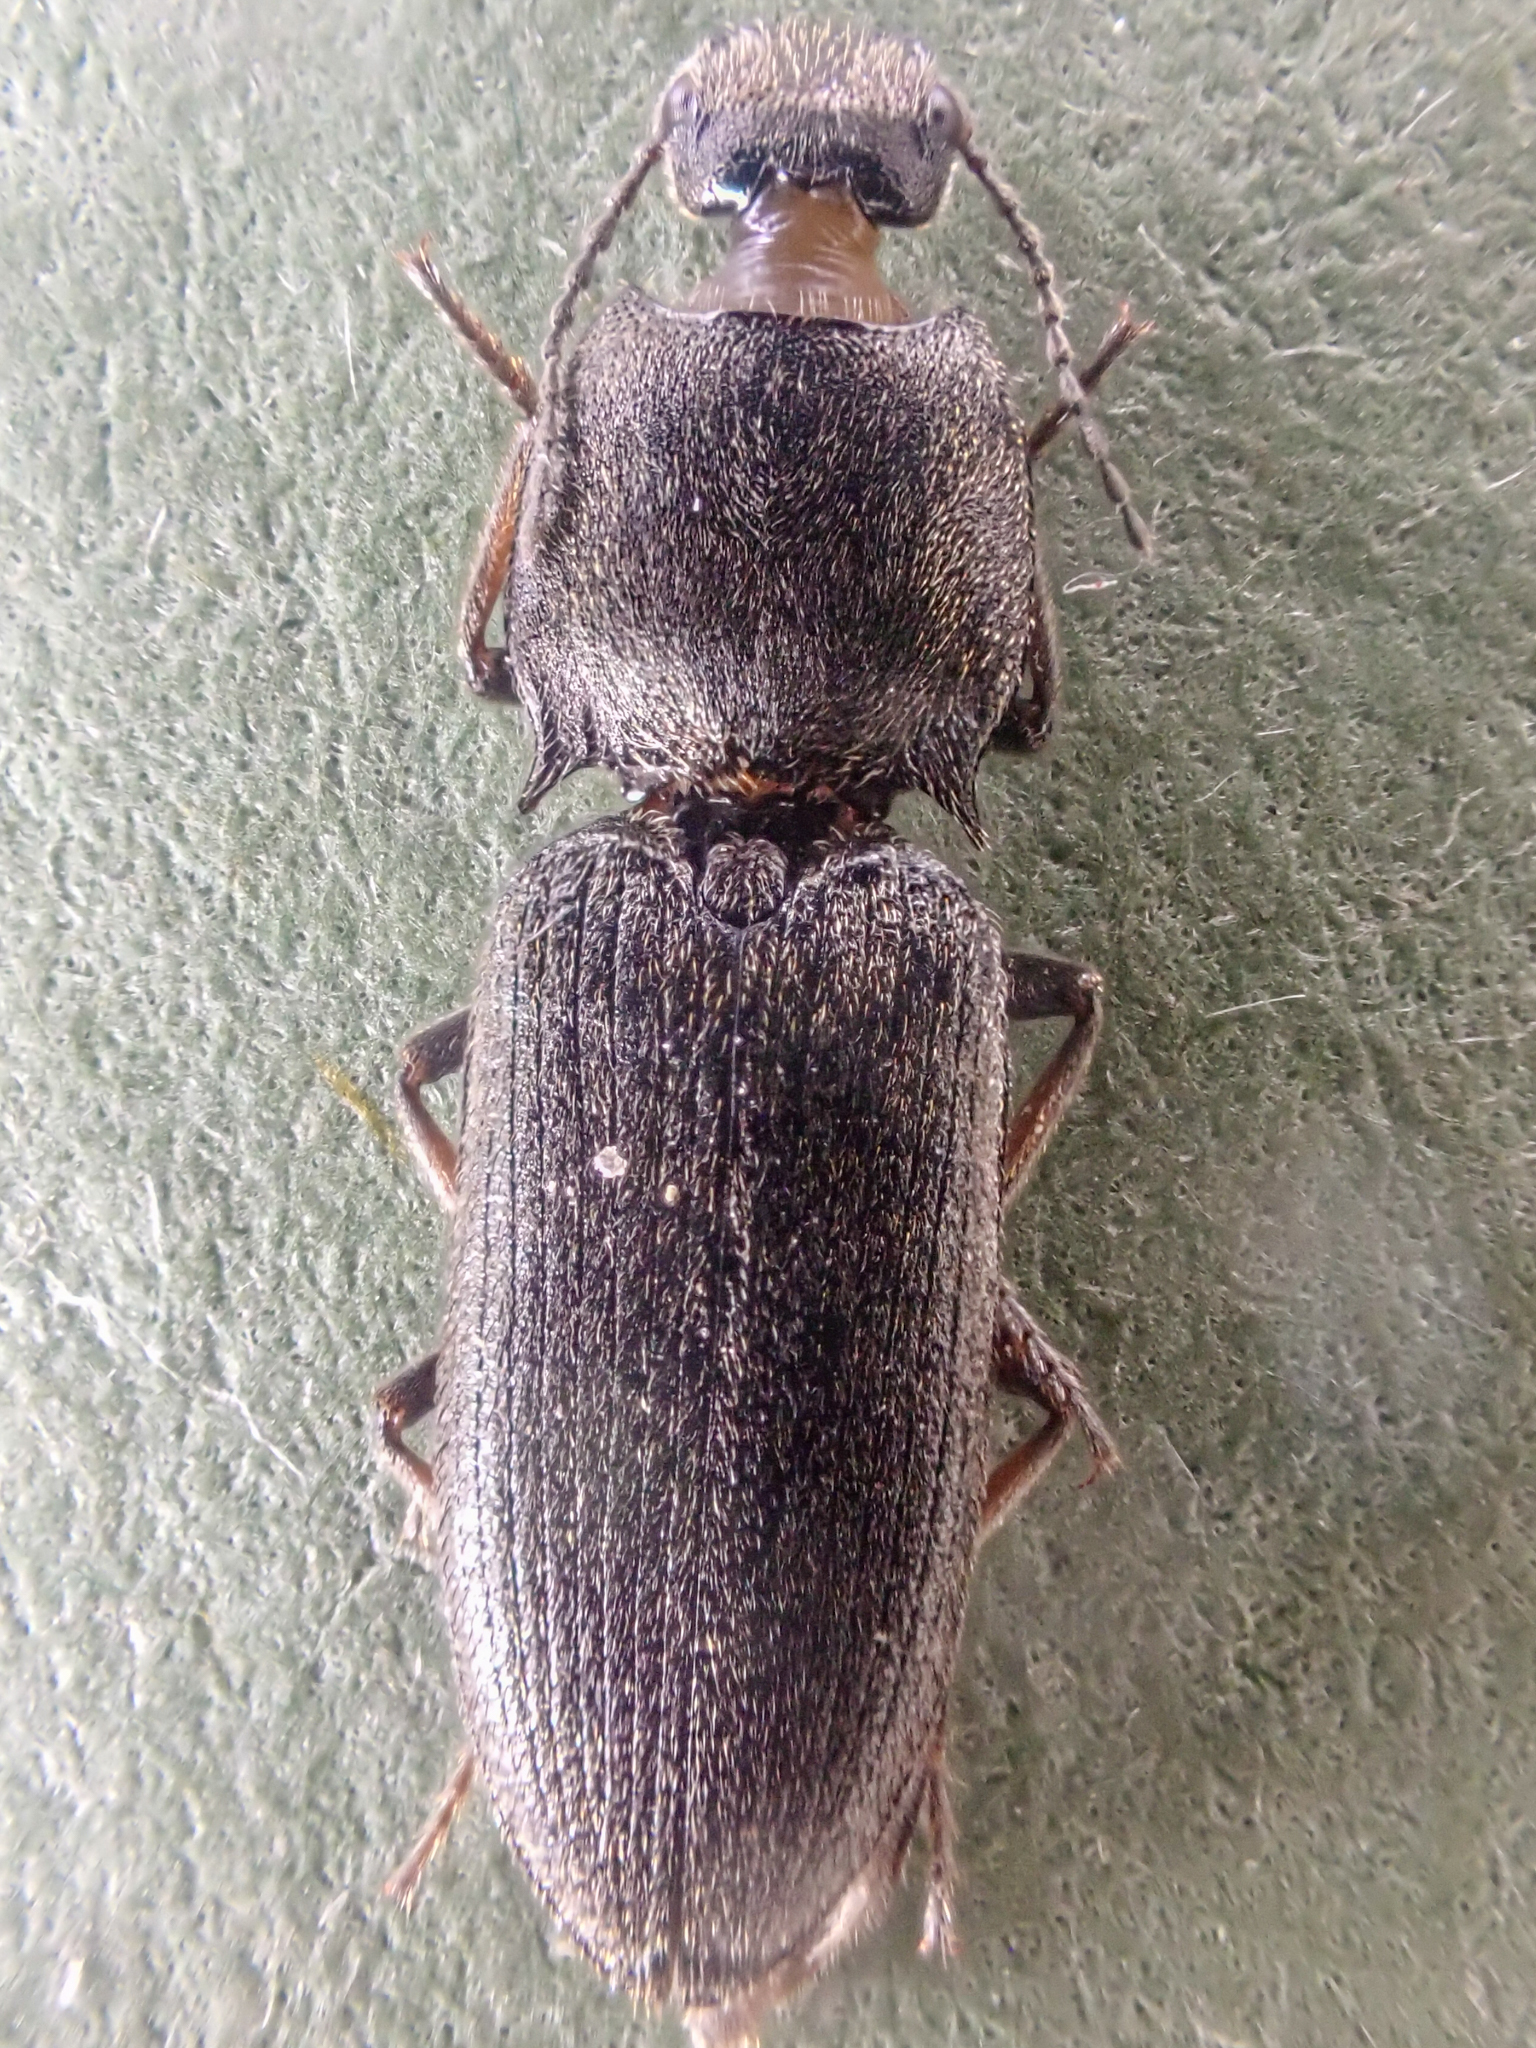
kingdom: Animalia
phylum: Arthropoda
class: Insecta
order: Coleoptera
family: Elateridae
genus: Ligmargus
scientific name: Ligmargus funebris
